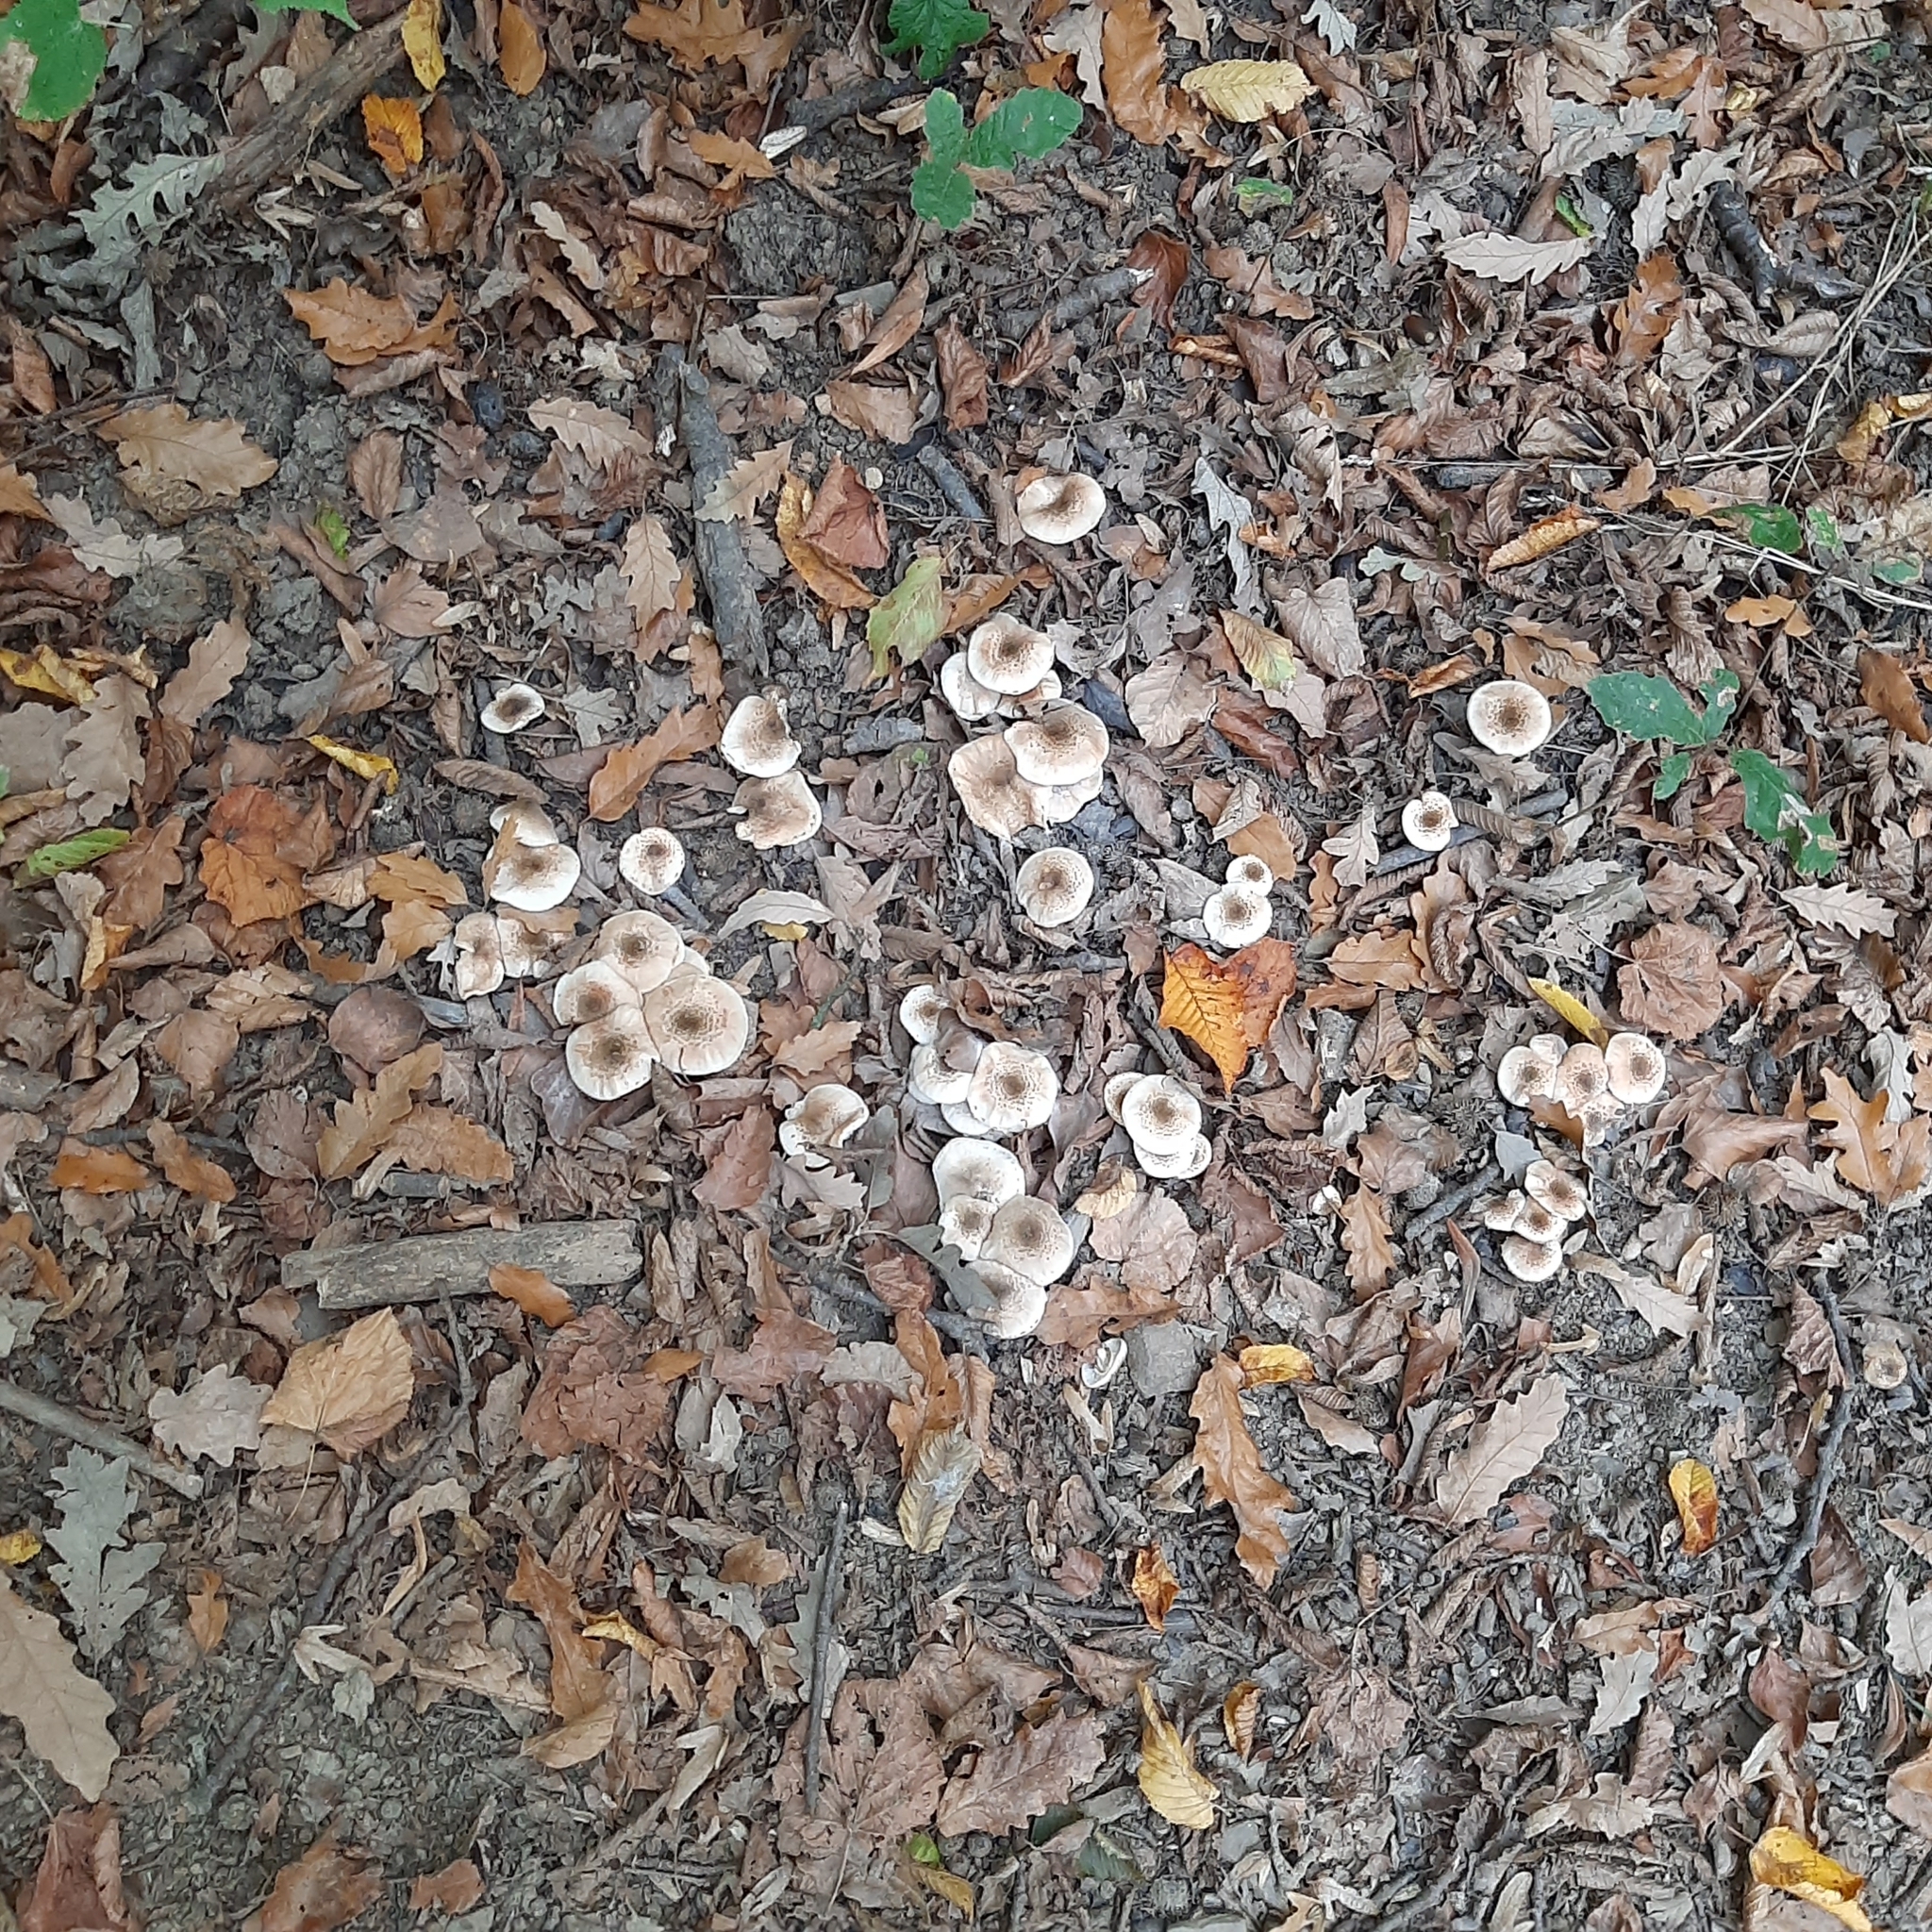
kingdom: Fungi
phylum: Basidiomycota
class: Agaricomycetes
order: Agaricales
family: Physalacriaceae
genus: Armillaria
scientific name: Armillaria
